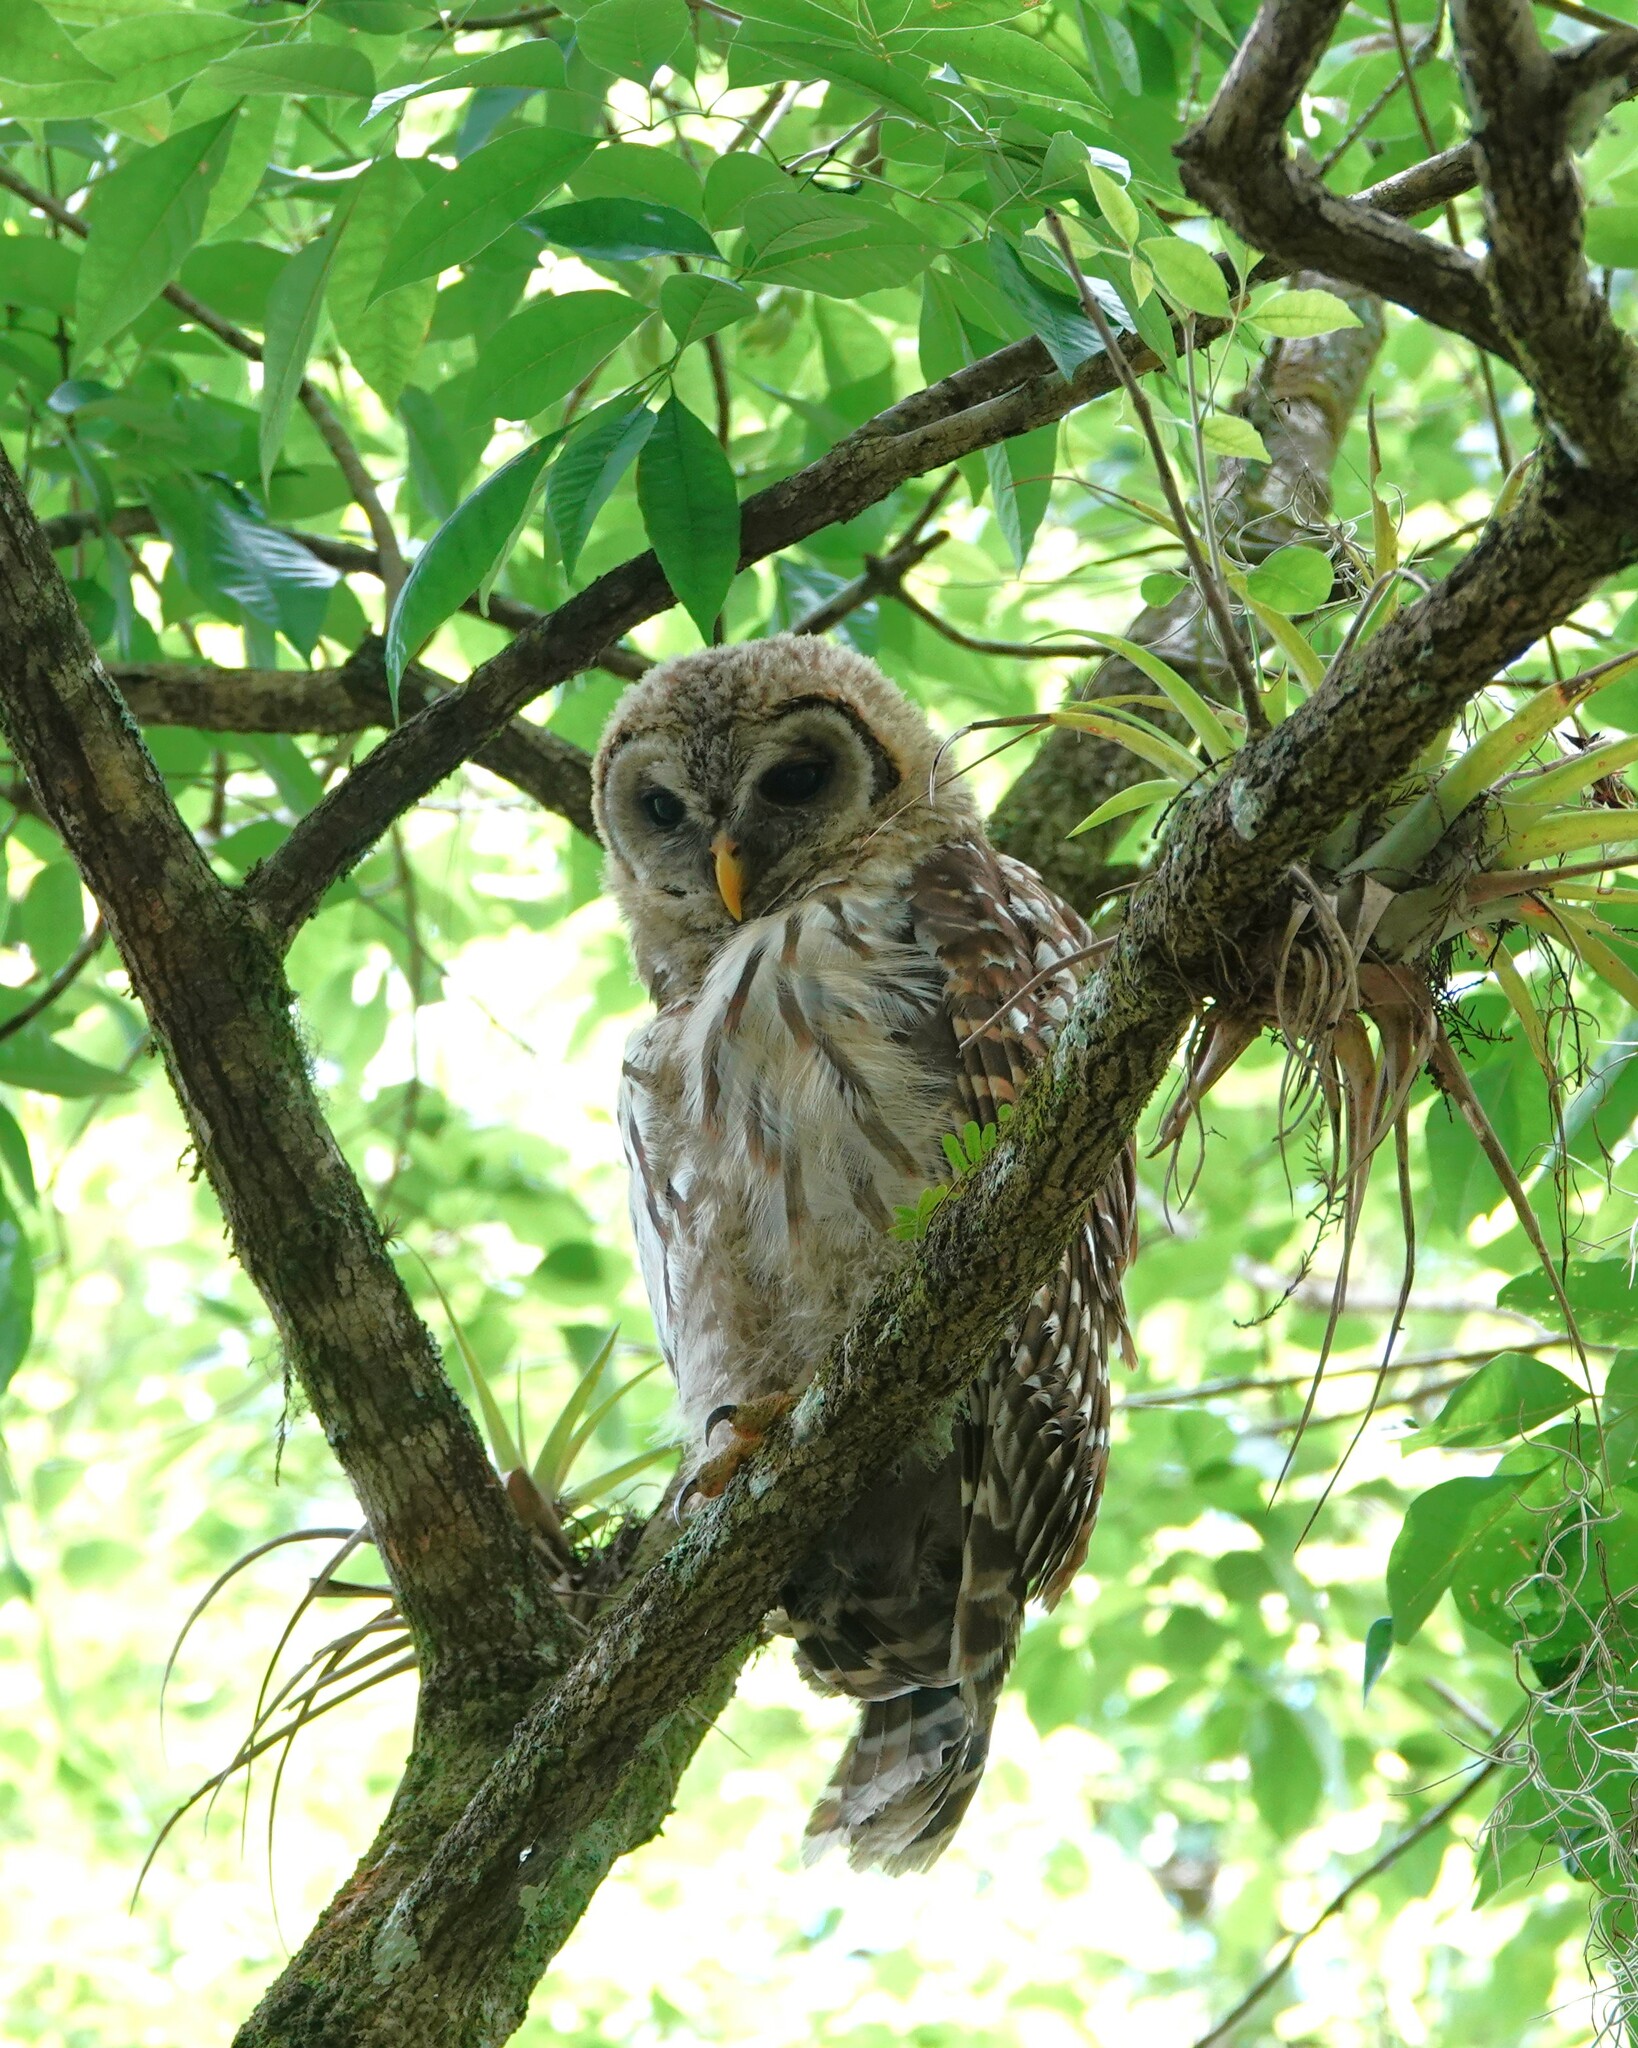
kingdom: Animalia
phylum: Chordata
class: Aves
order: Strigiformes
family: Strigidae
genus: Strix
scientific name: Strix varia
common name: Barred owl
